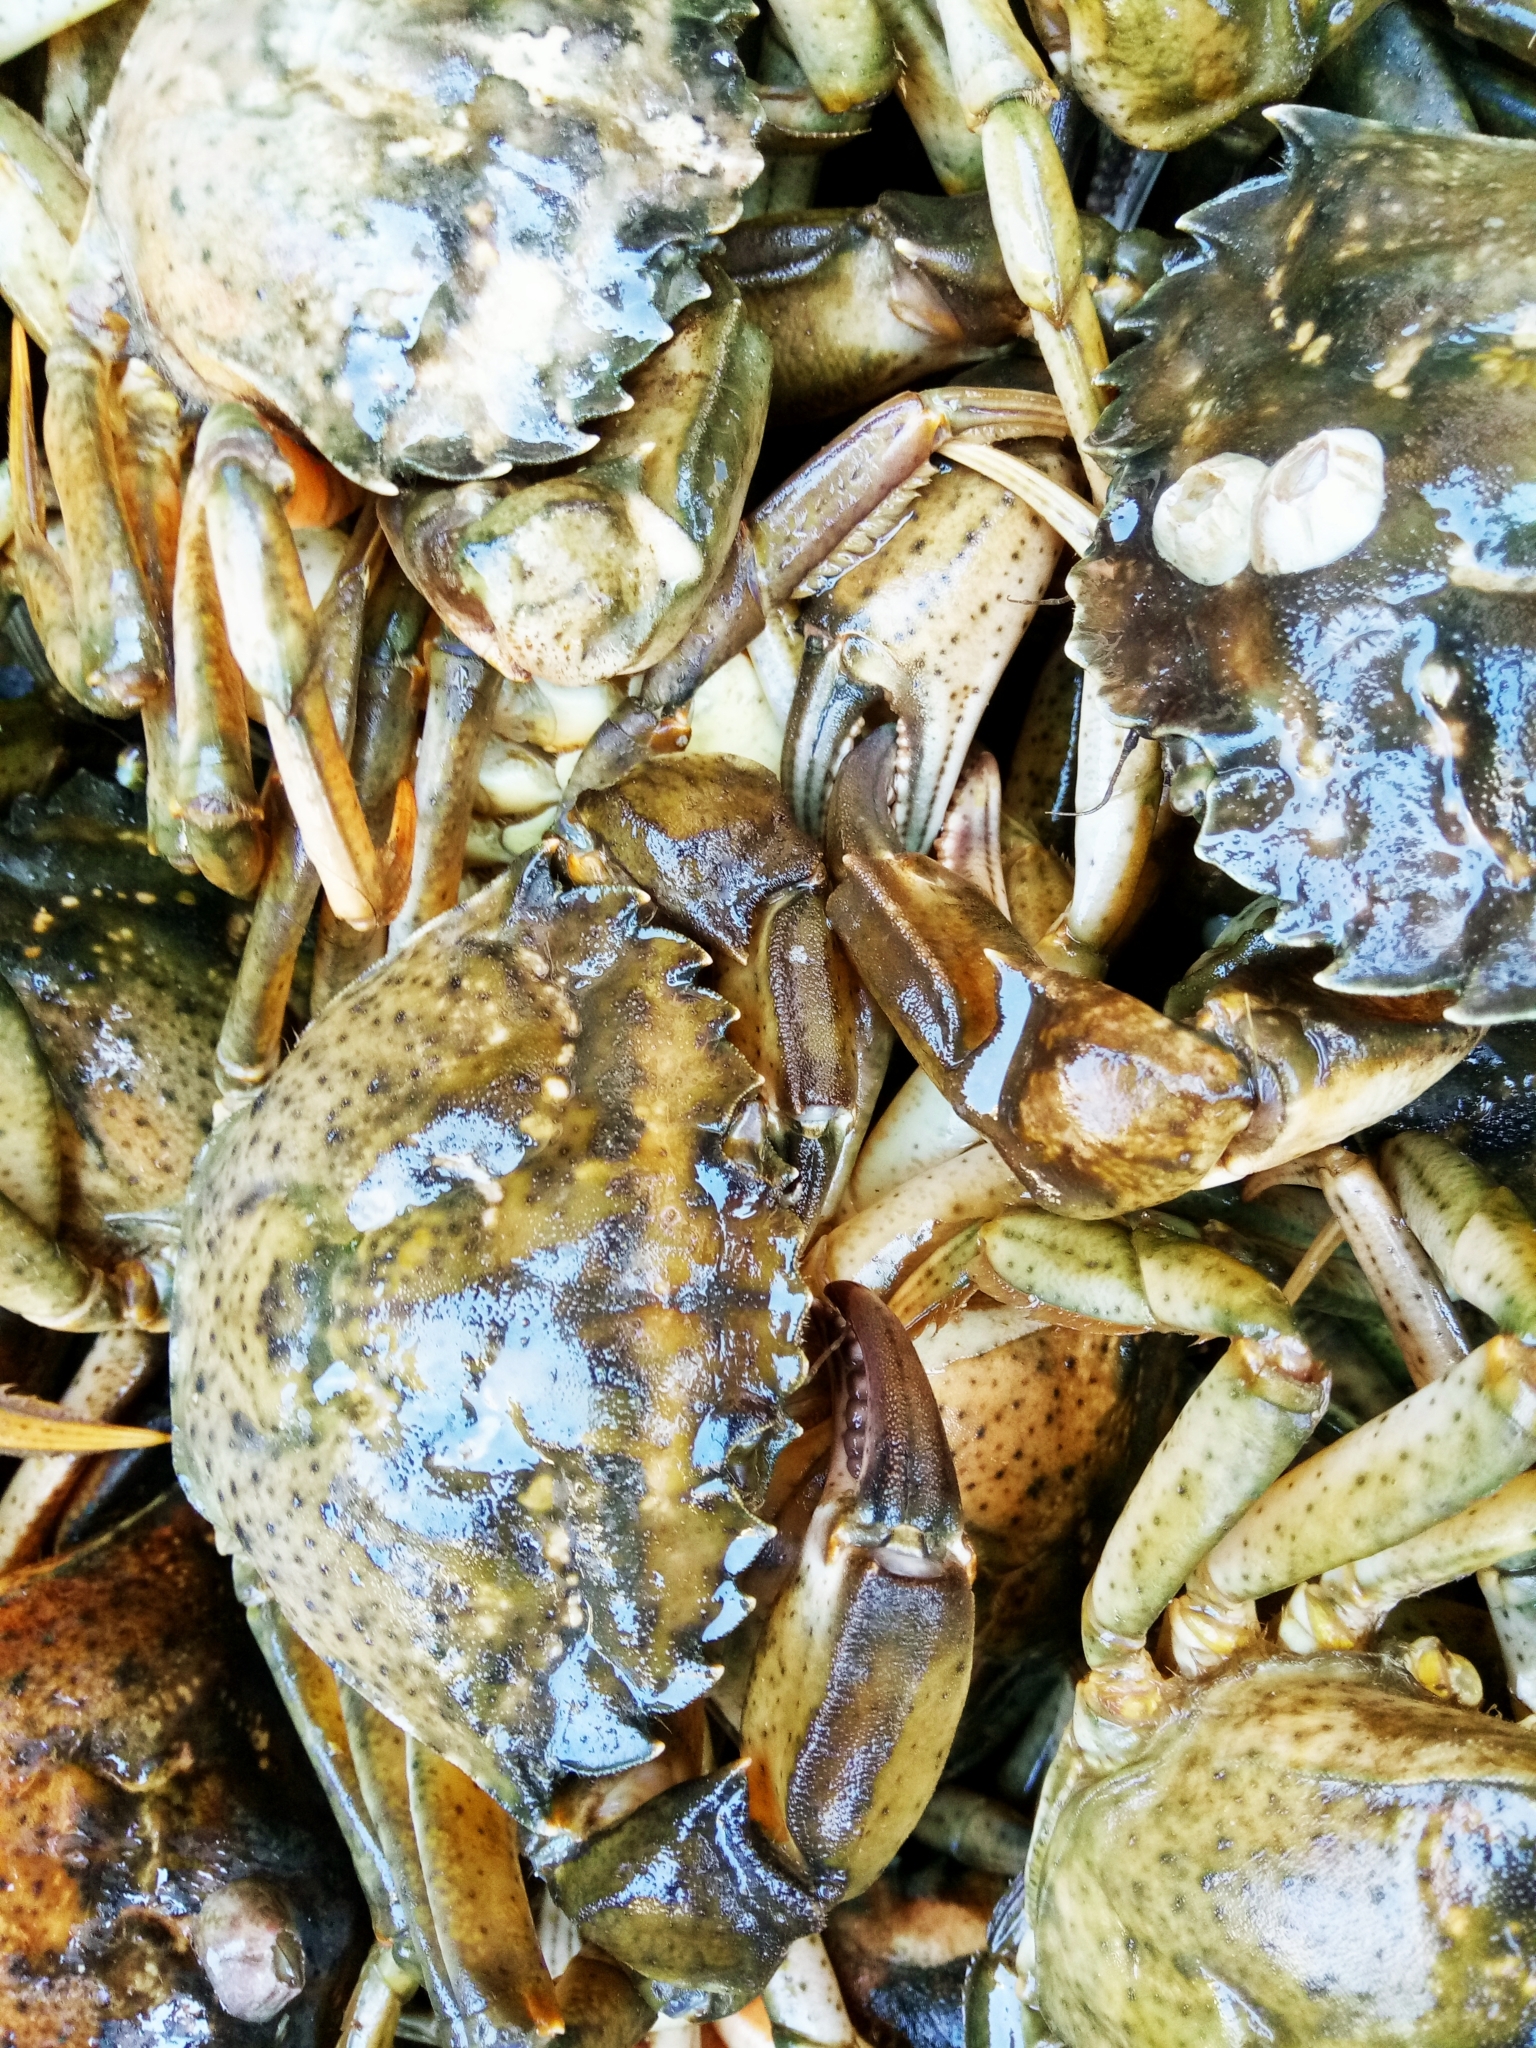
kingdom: Animalia
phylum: Arthropoda
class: Malacostraca
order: Decapoda
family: Carcinidae
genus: Carcinus
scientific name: Carcinus aestuarii
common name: Mediterranean green crab
